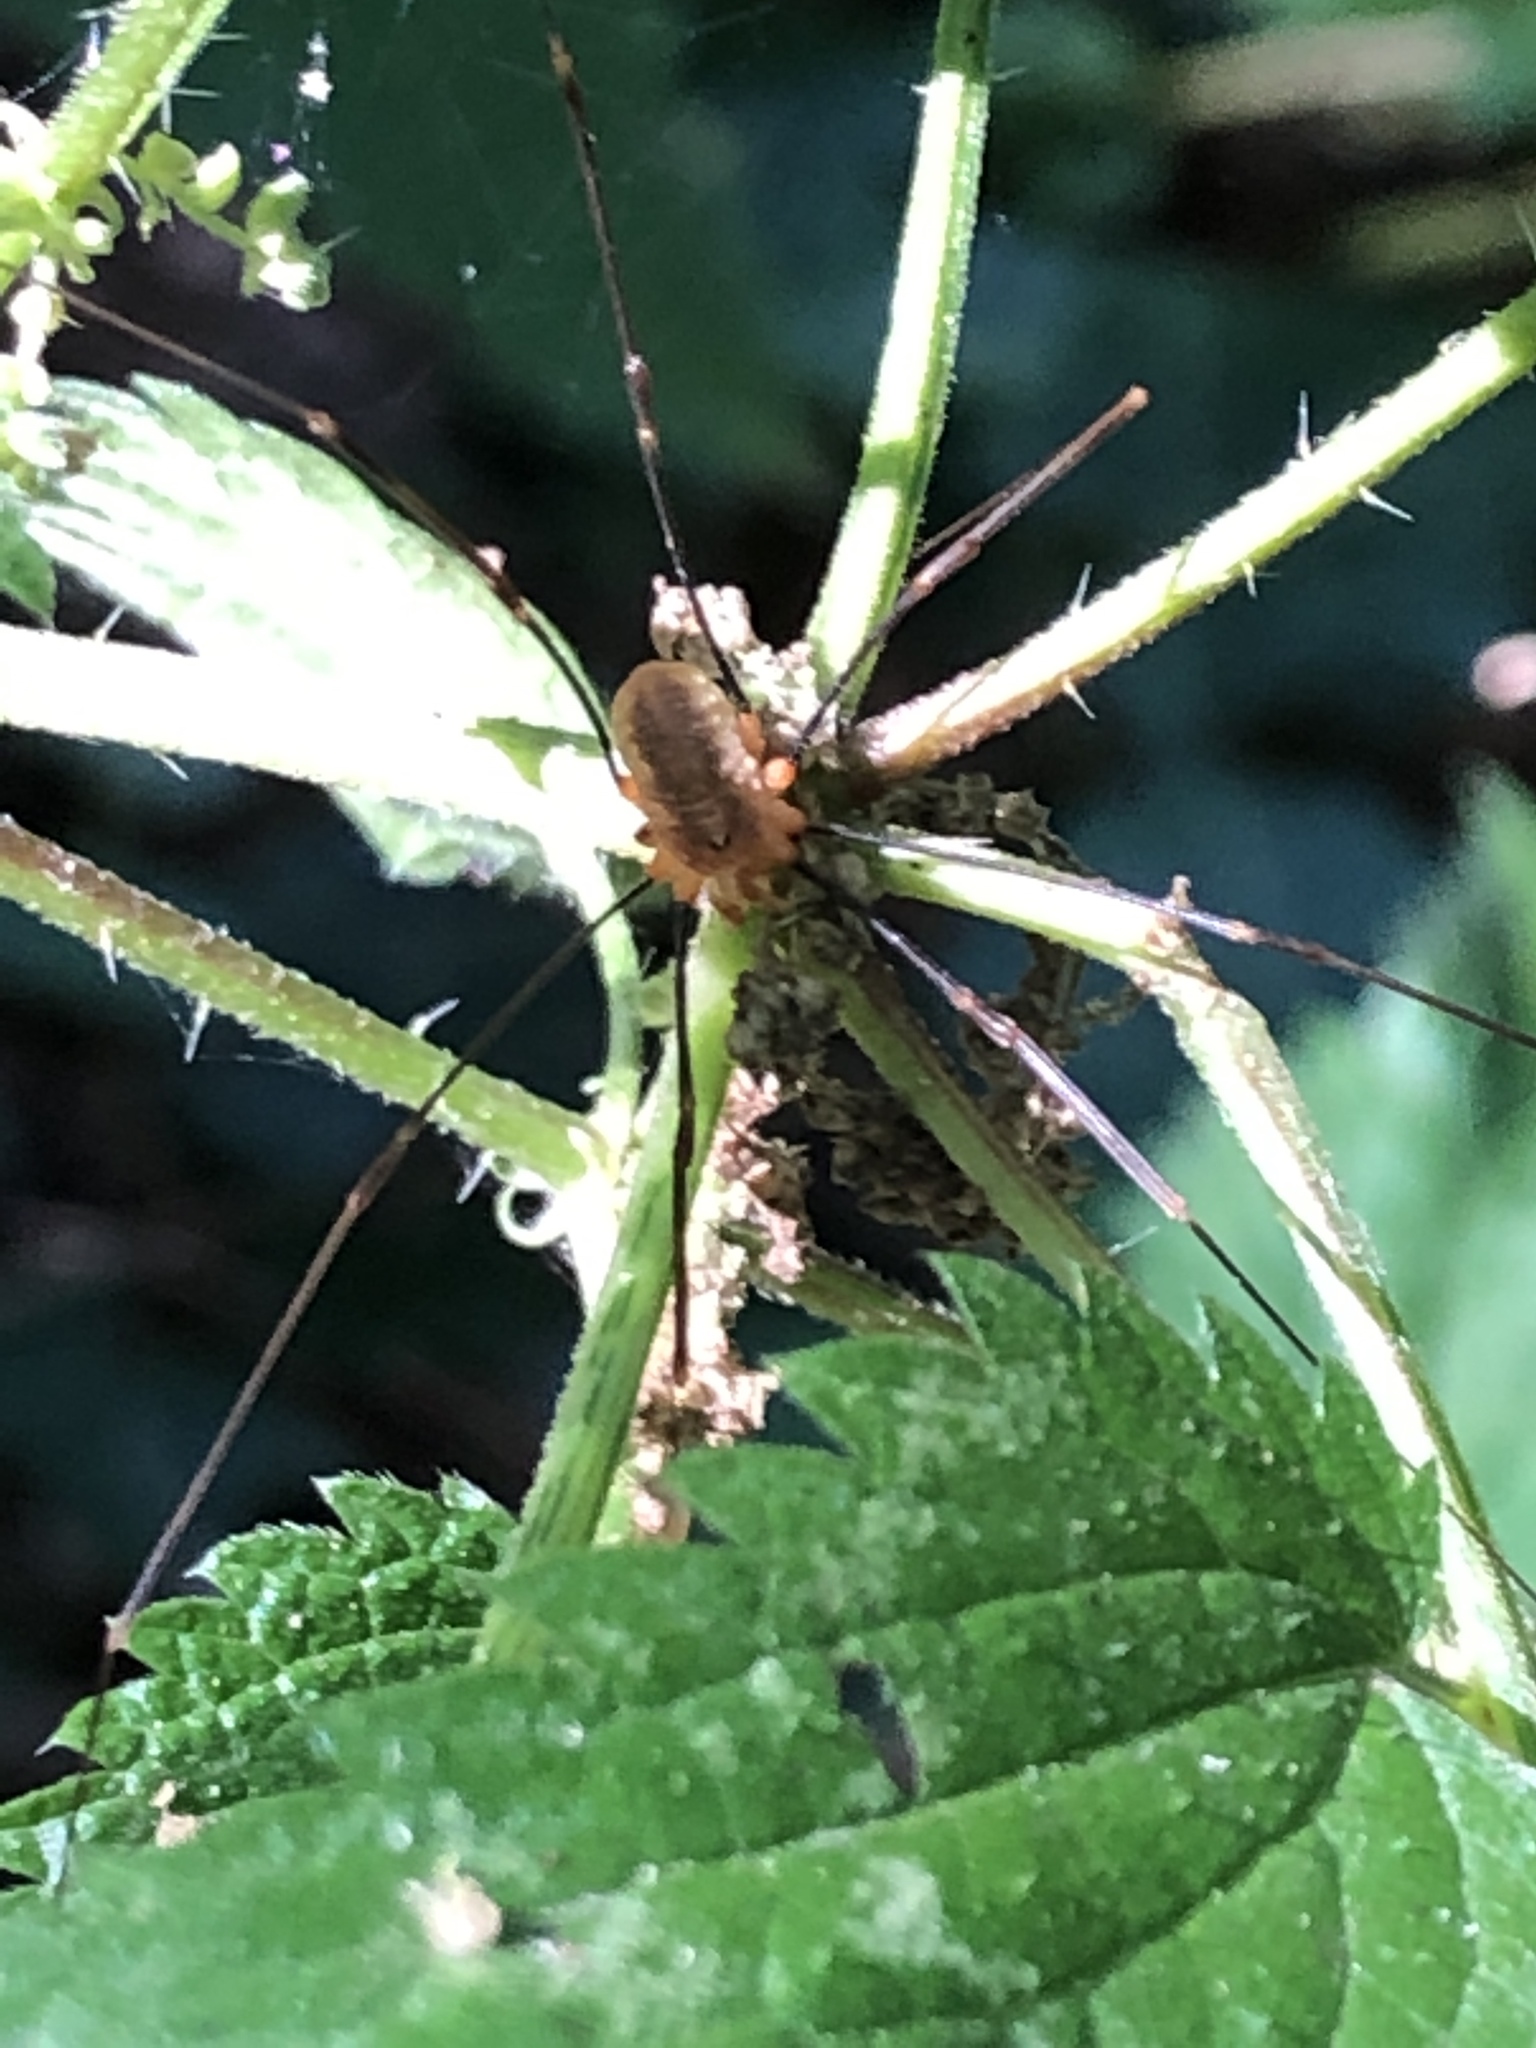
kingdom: Animalia
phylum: Arthropoda
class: Arachnida
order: Opiliones
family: Phalangiidae
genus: Opilio
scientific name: Opilio canestrinii
